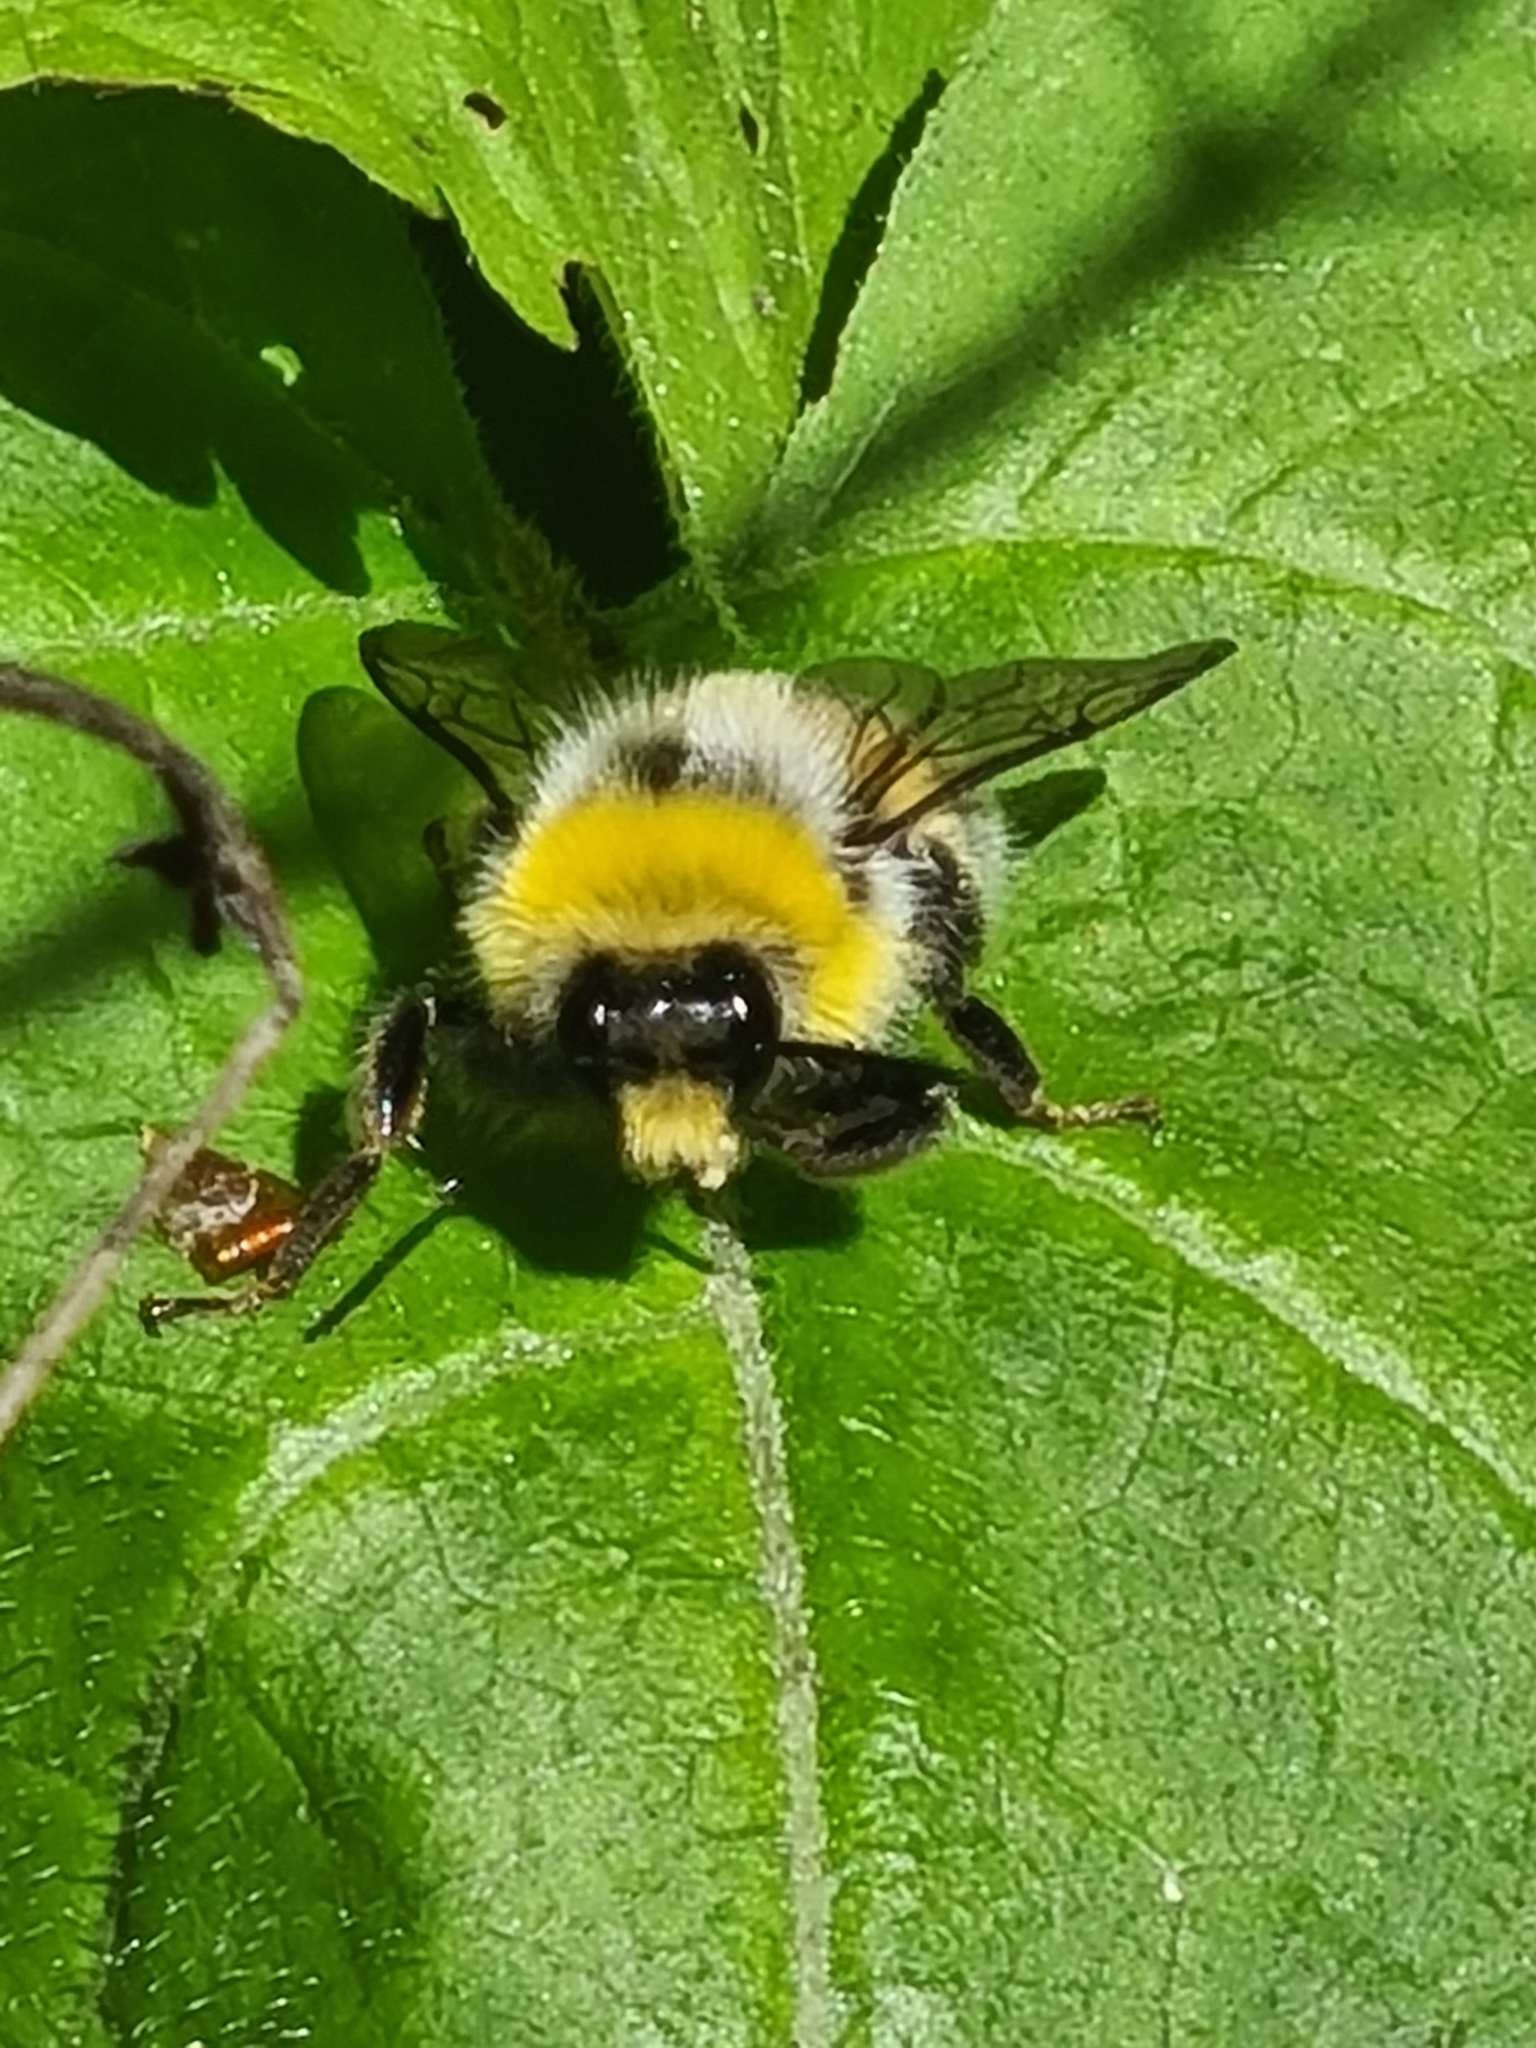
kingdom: Animalia
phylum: Arthropoda
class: Insecta
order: Hymenoptera
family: Apidae
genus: Bombus
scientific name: Bombus lucorum
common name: White-tailed bumblebee
